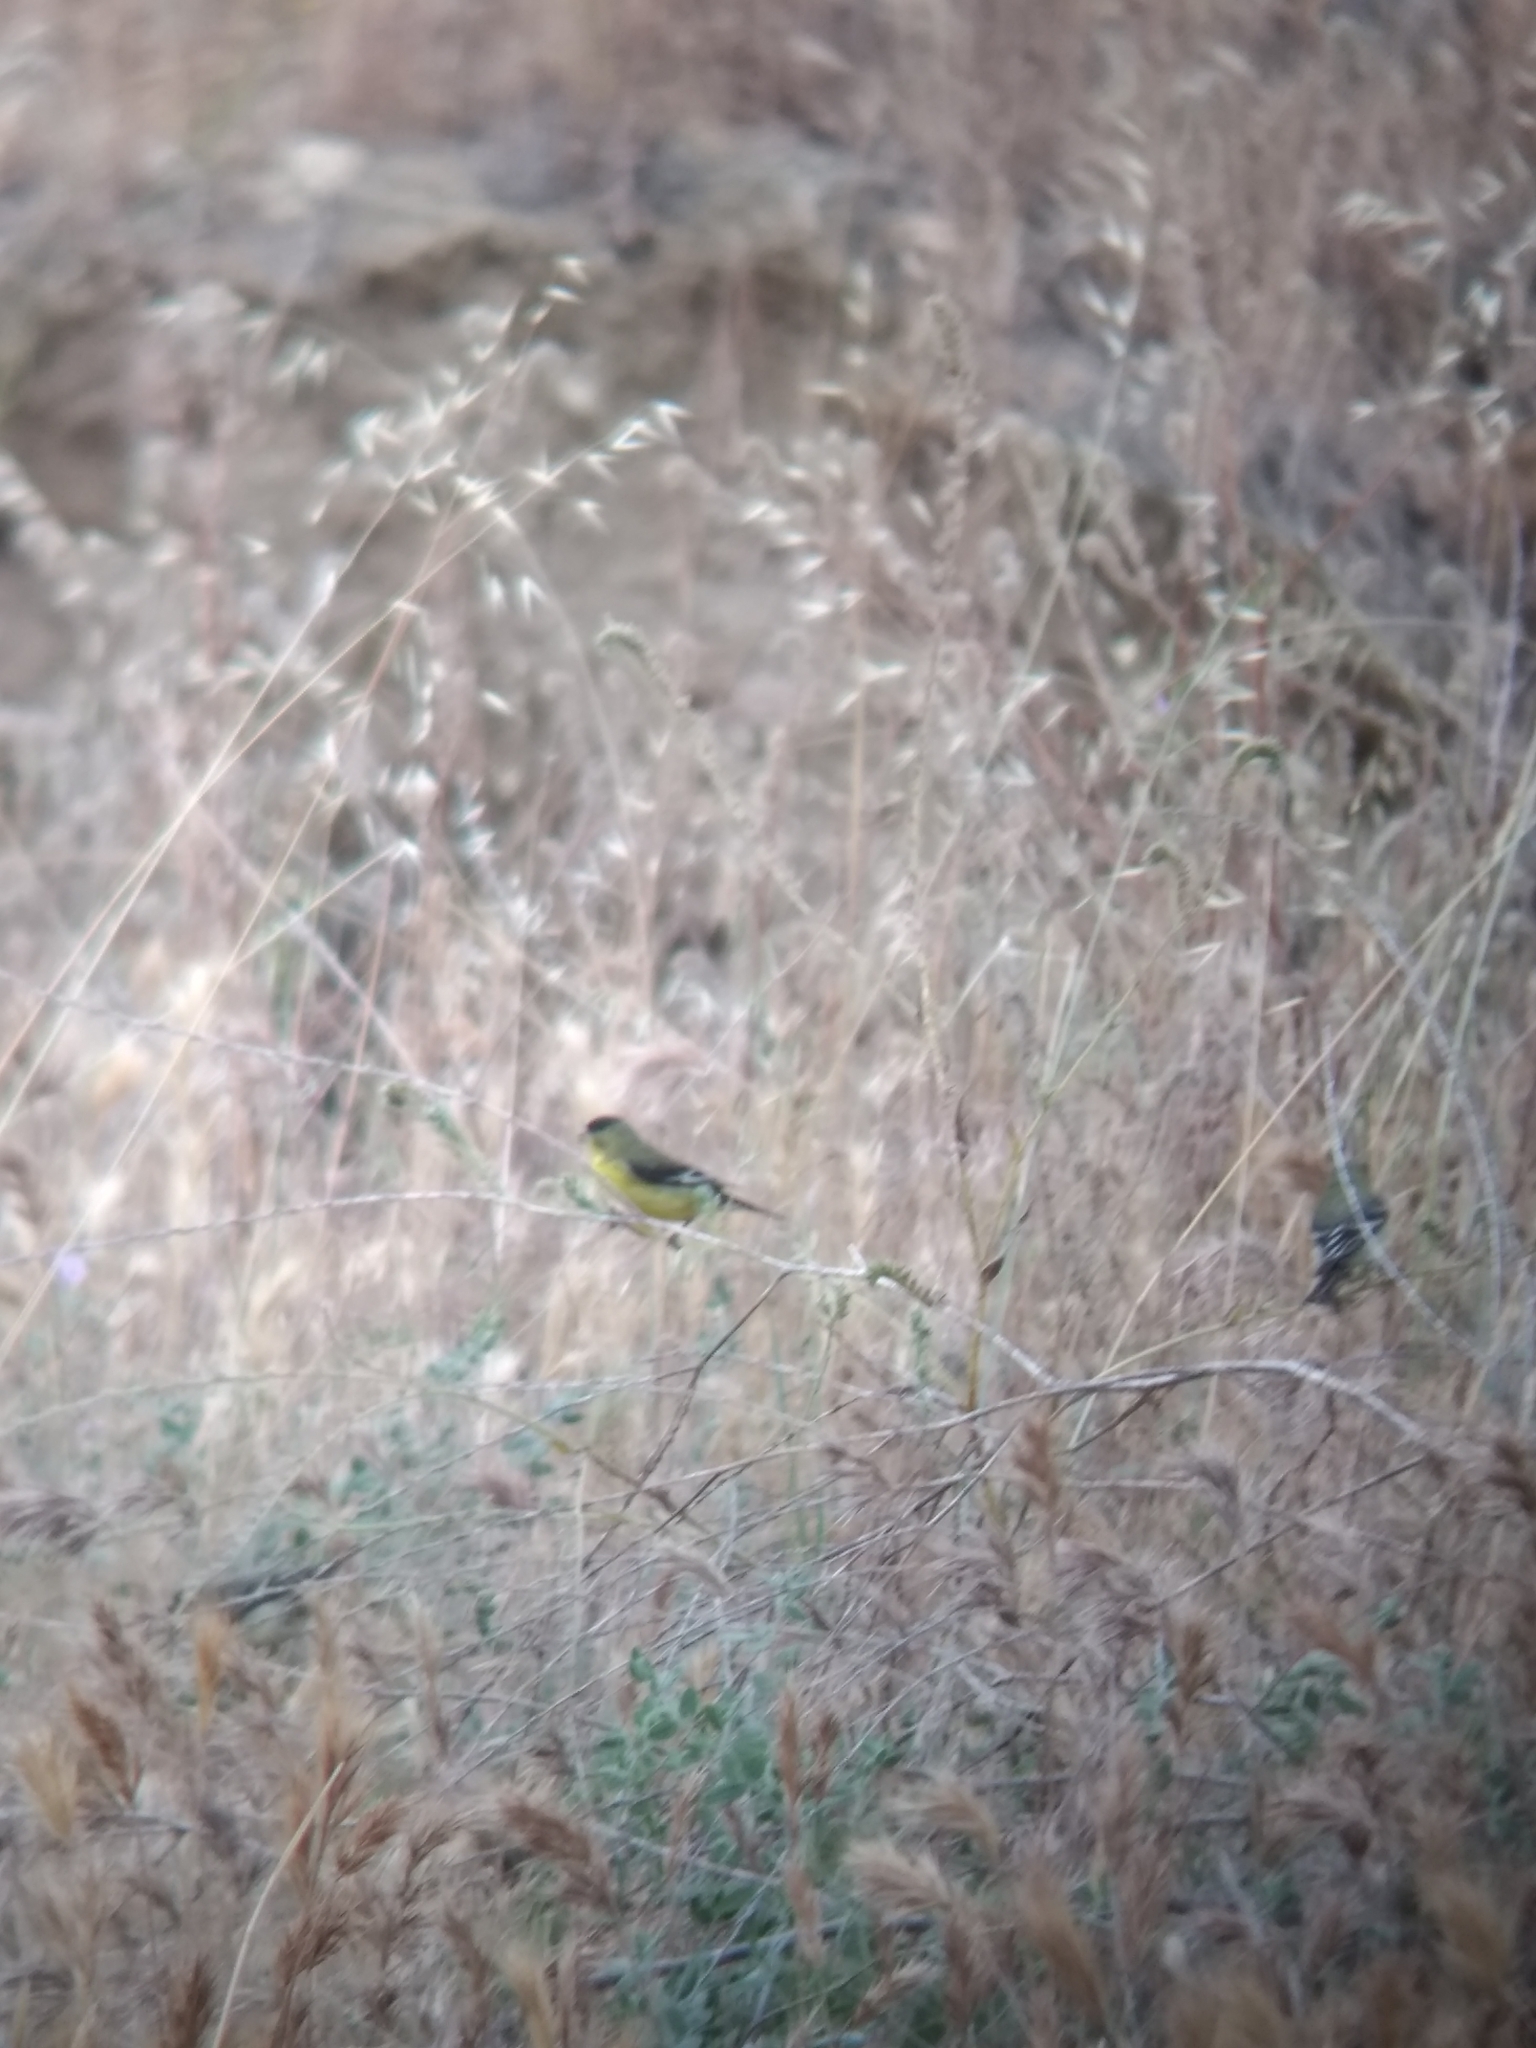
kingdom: Animalia
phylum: Chordata
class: Aves
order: Passeriformes
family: Fringillidae
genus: Spinus
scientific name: Spinus psaltria
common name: Lesser goldfinch
